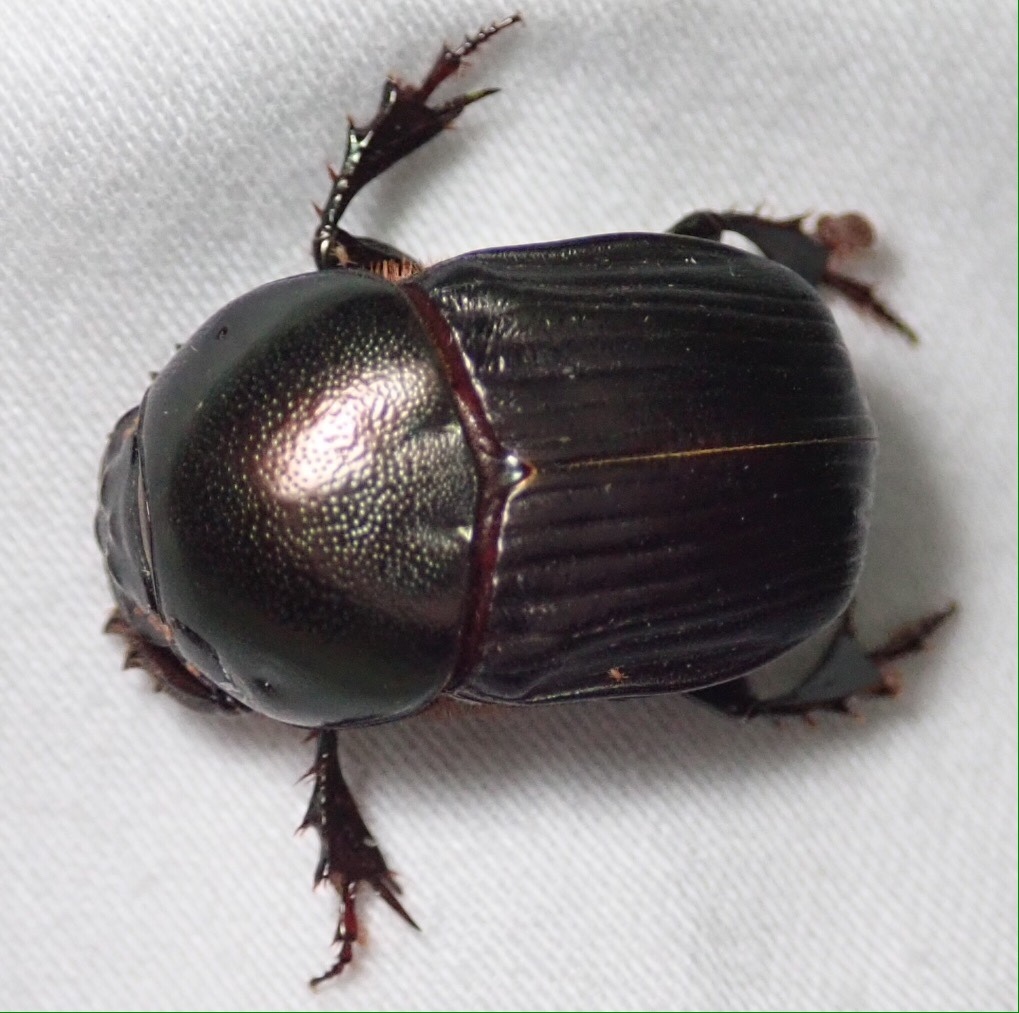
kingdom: Animalia
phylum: Arthropoda
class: Insecta
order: Coleoptera
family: Scarabaeidae
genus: Onitis
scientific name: Onitis viridulus
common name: Emerald dung beetle
